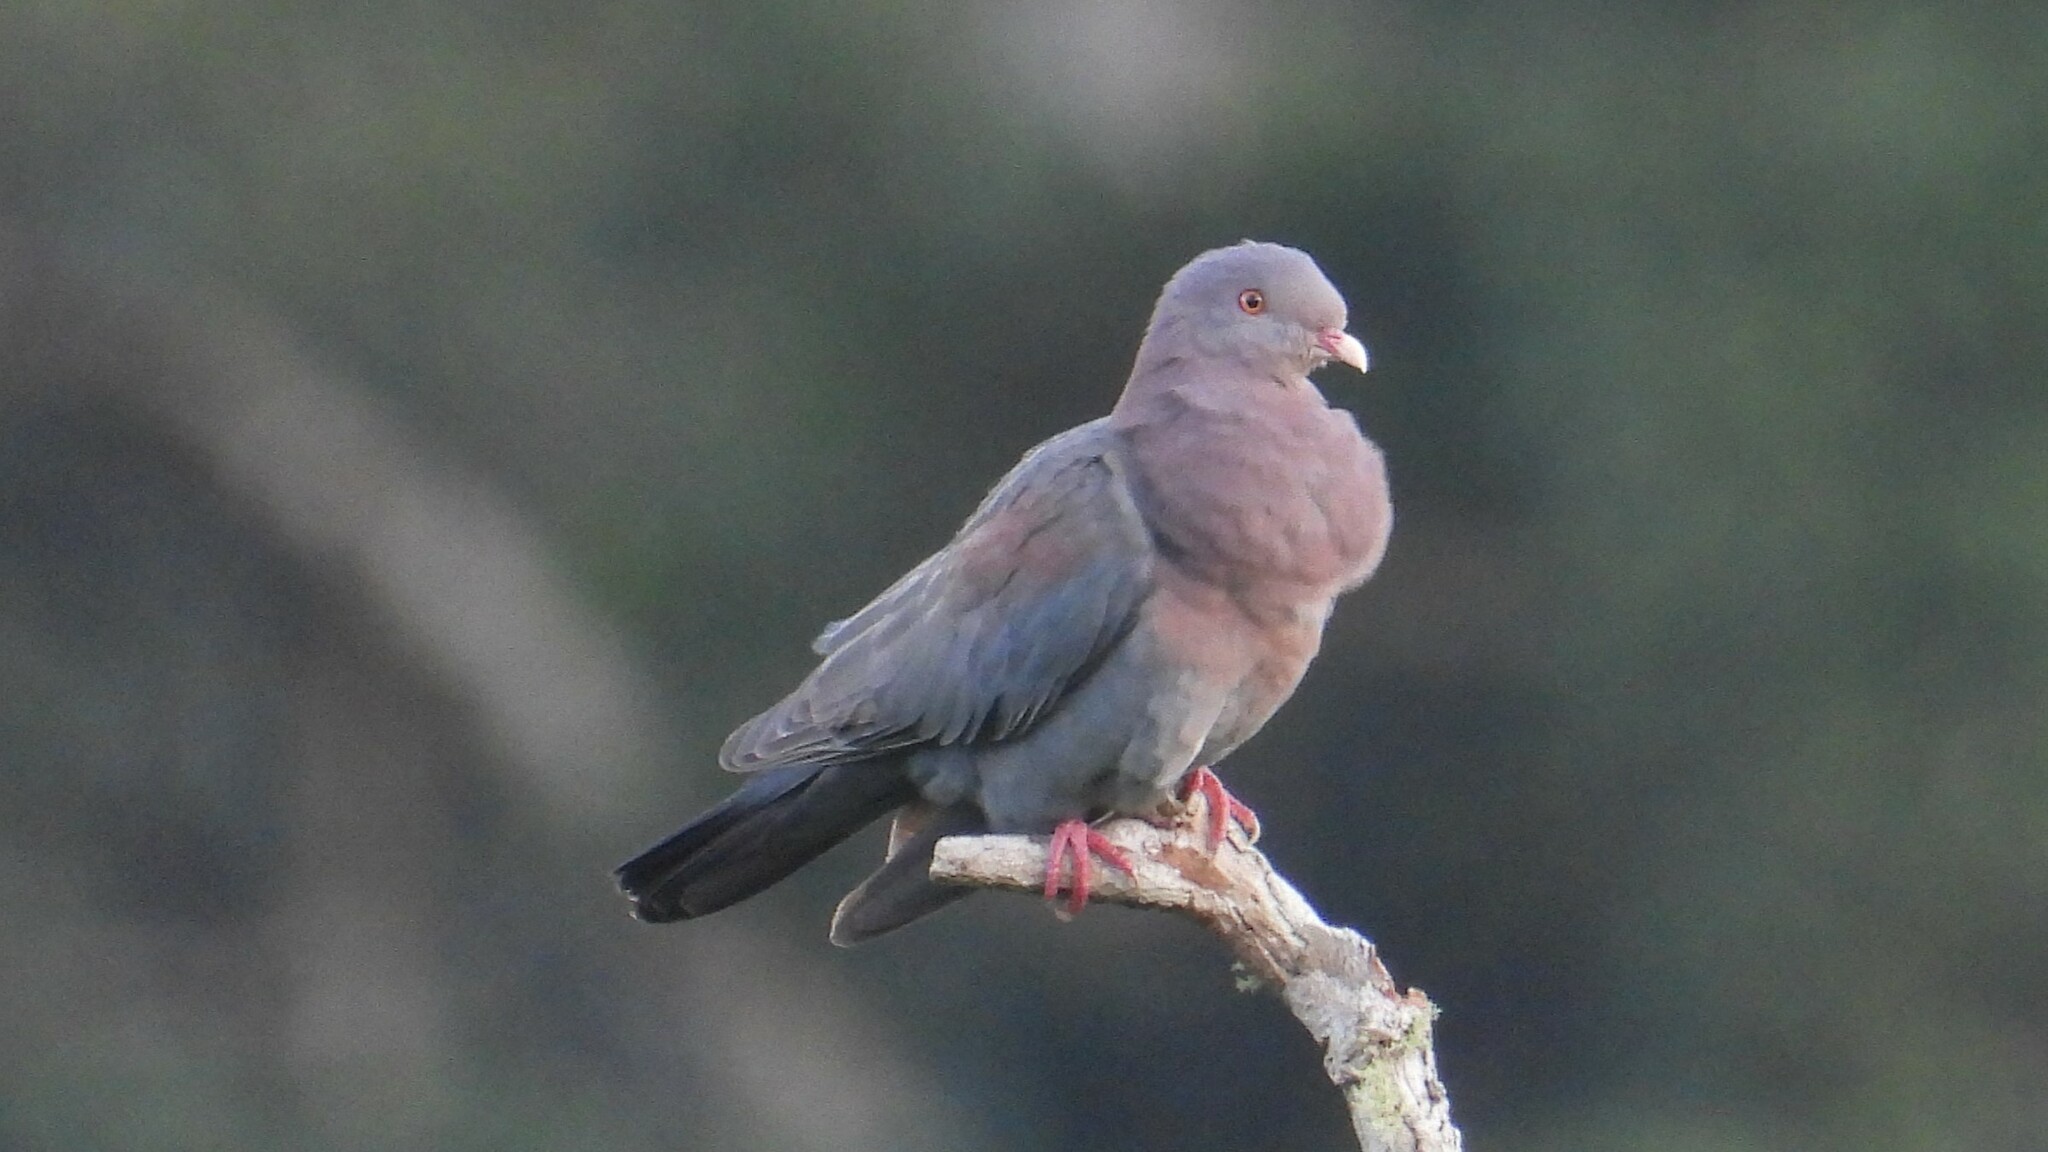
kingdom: Animalia
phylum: Chordata
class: Aves
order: Columbiformes
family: Columbidae
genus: Patagioenas
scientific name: Patagioenas flavirostris
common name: Red-billed pigeon
